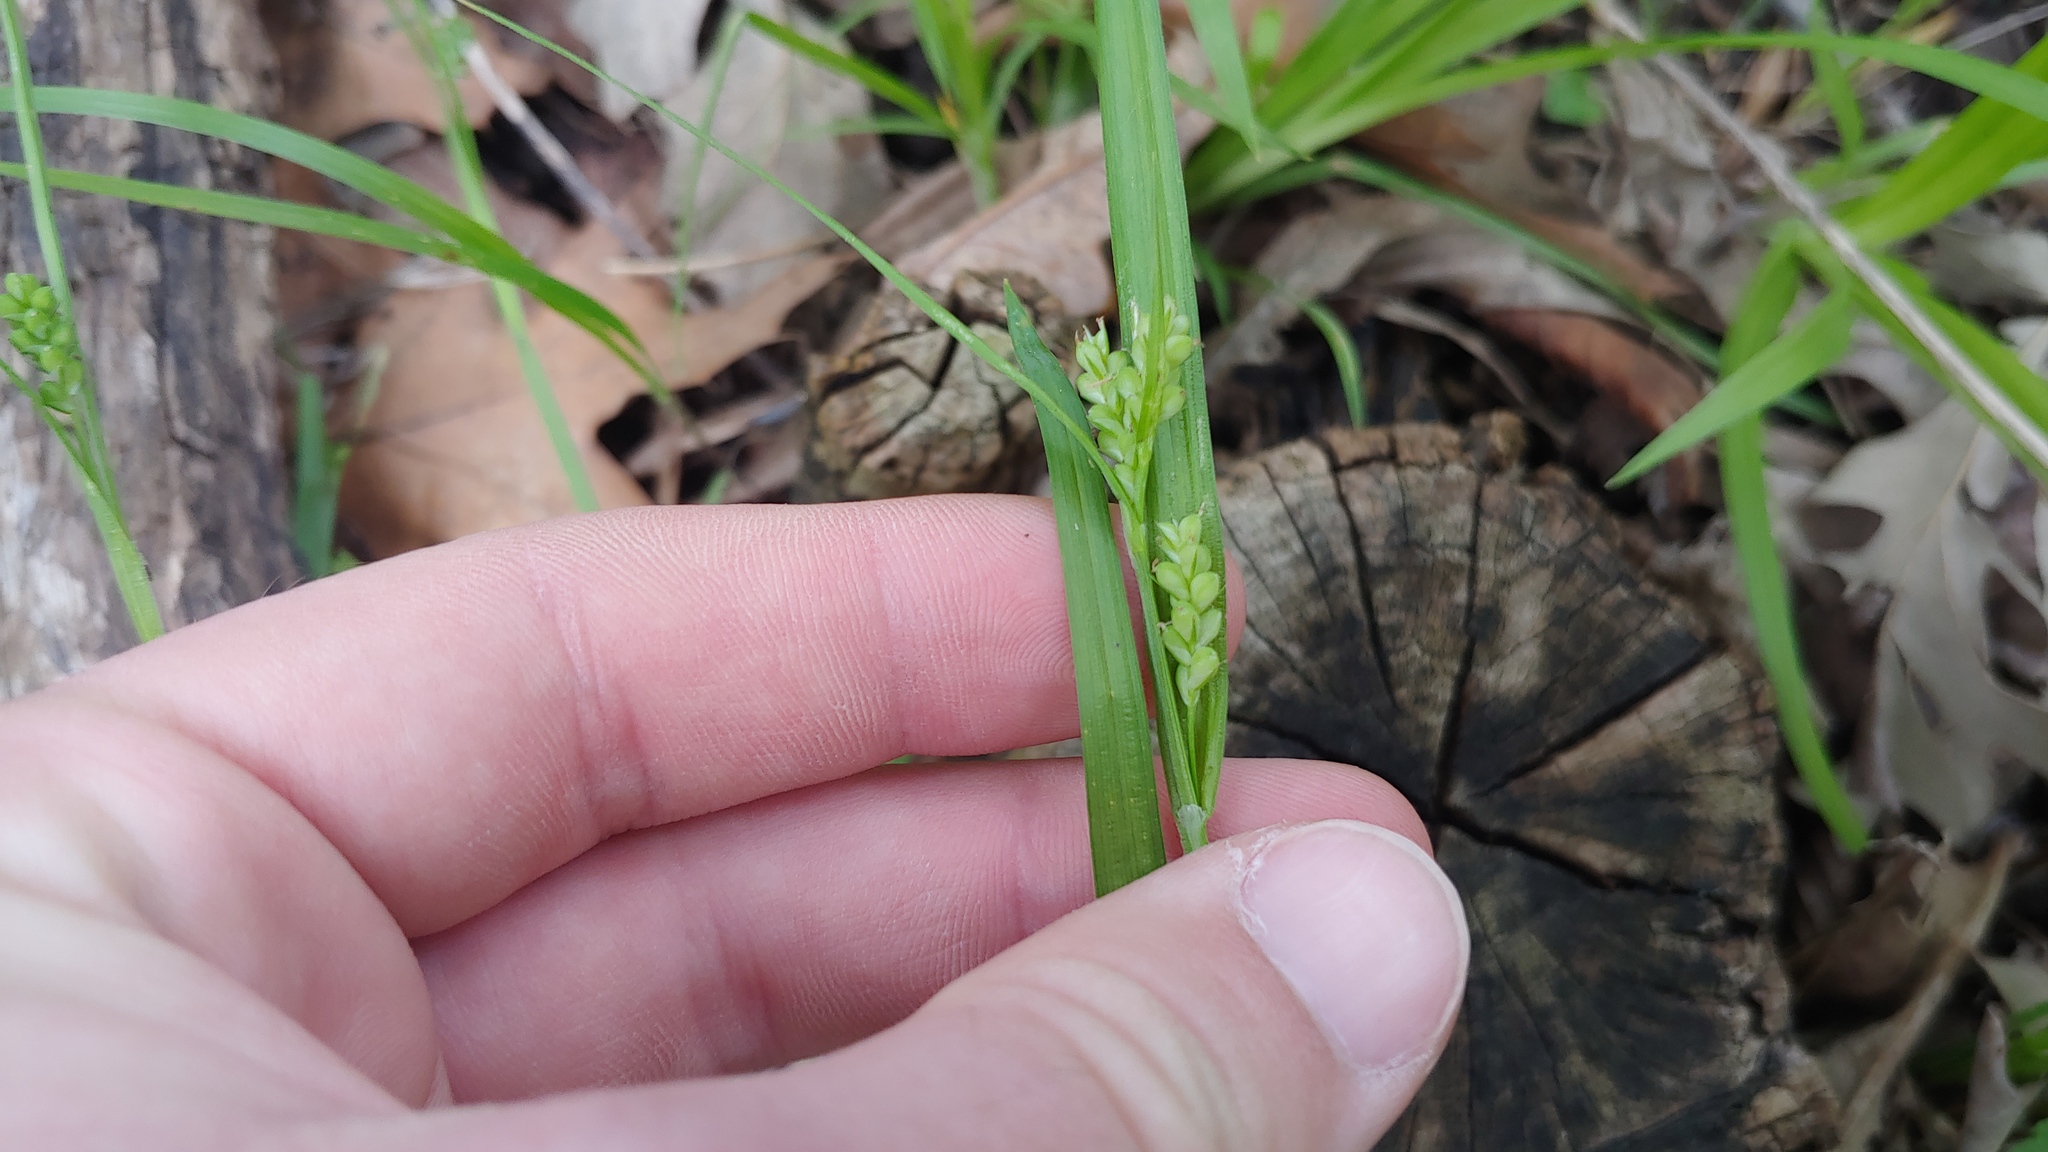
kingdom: Plantae
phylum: Tracheophyta
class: Liliopsida
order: Poales
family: Cyperaceae
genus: Carex
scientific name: Carex blanda
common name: Bland sedge
